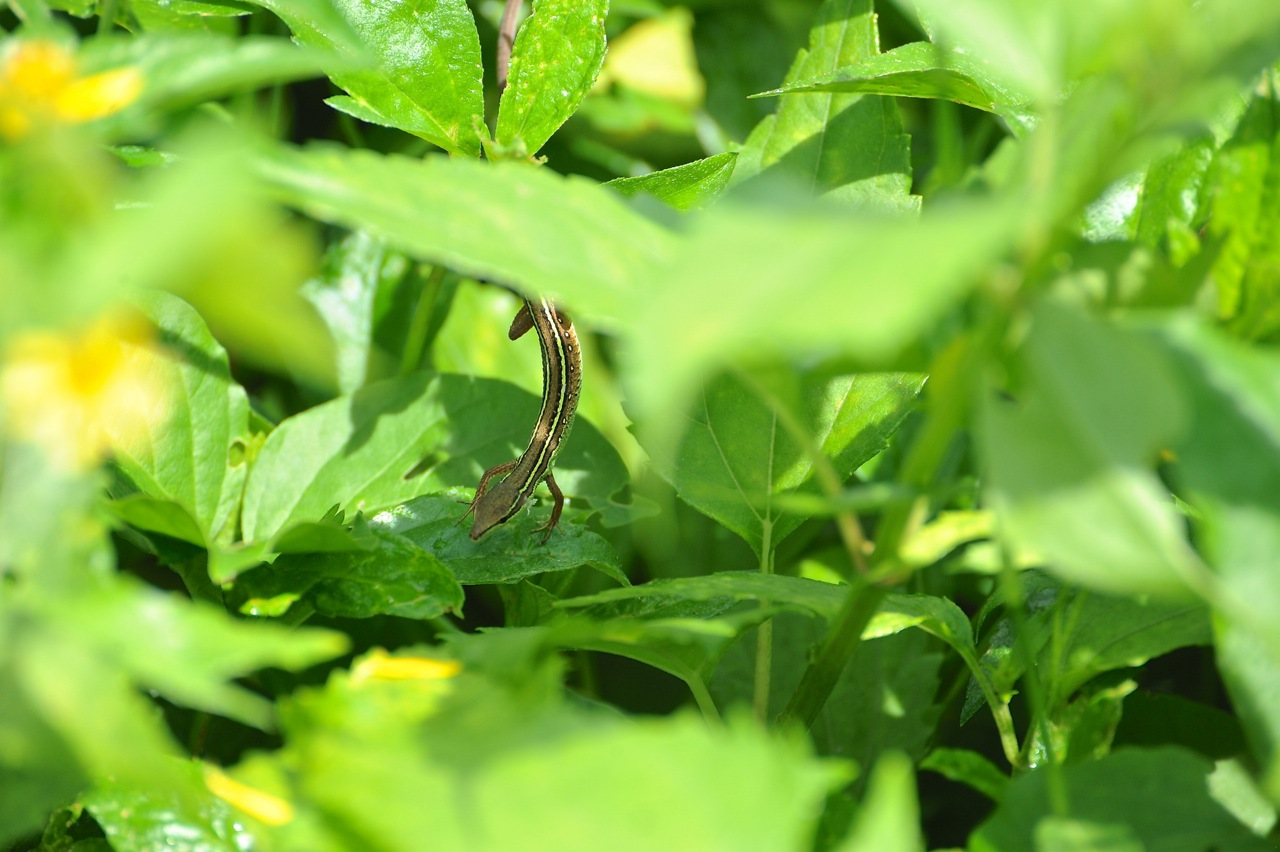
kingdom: Animalia
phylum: Chordata
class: Squamata
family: Lacertidae
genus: Takydromus
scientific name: Takydromus sexlineatus
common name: Asian grass lizard
